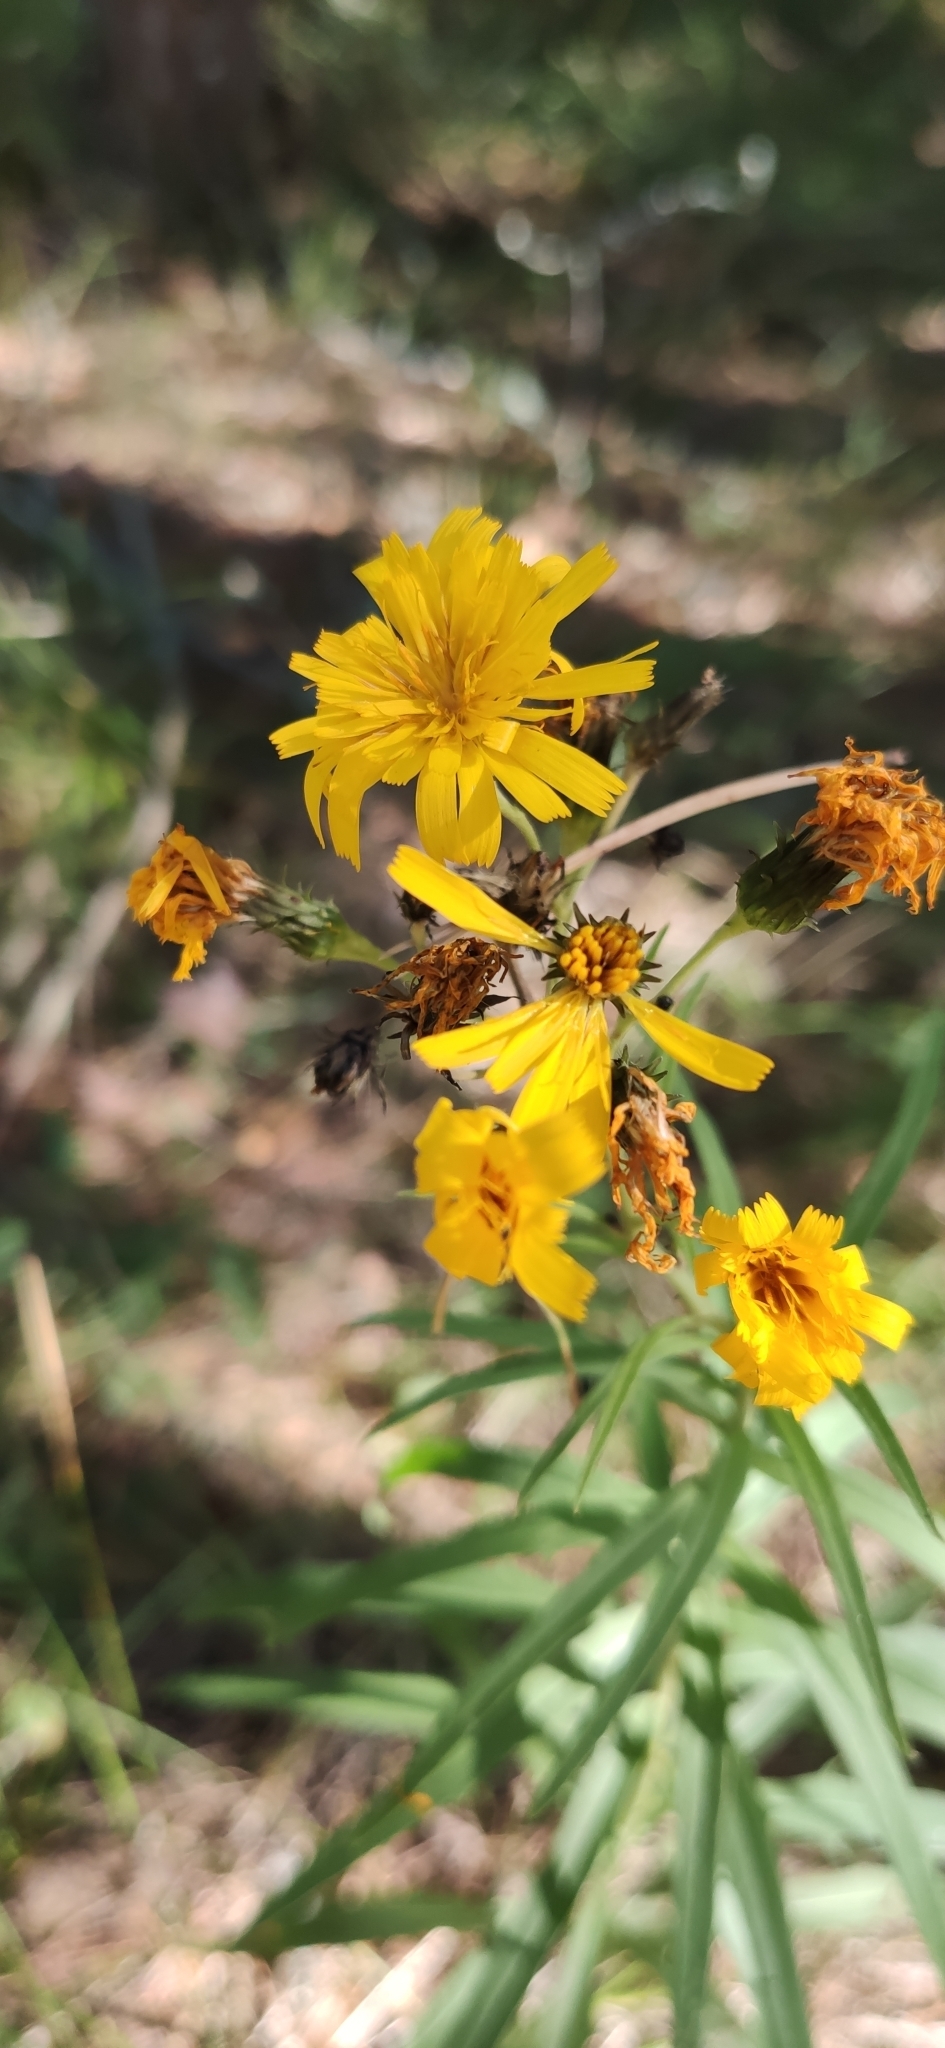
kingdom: Plantae
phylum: Tracheophyta
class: Magnoliopsida
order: Asterales
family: Asteraceae
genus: Hieracium
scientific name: Hieracium umbellatum
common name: Northern hawkweed
